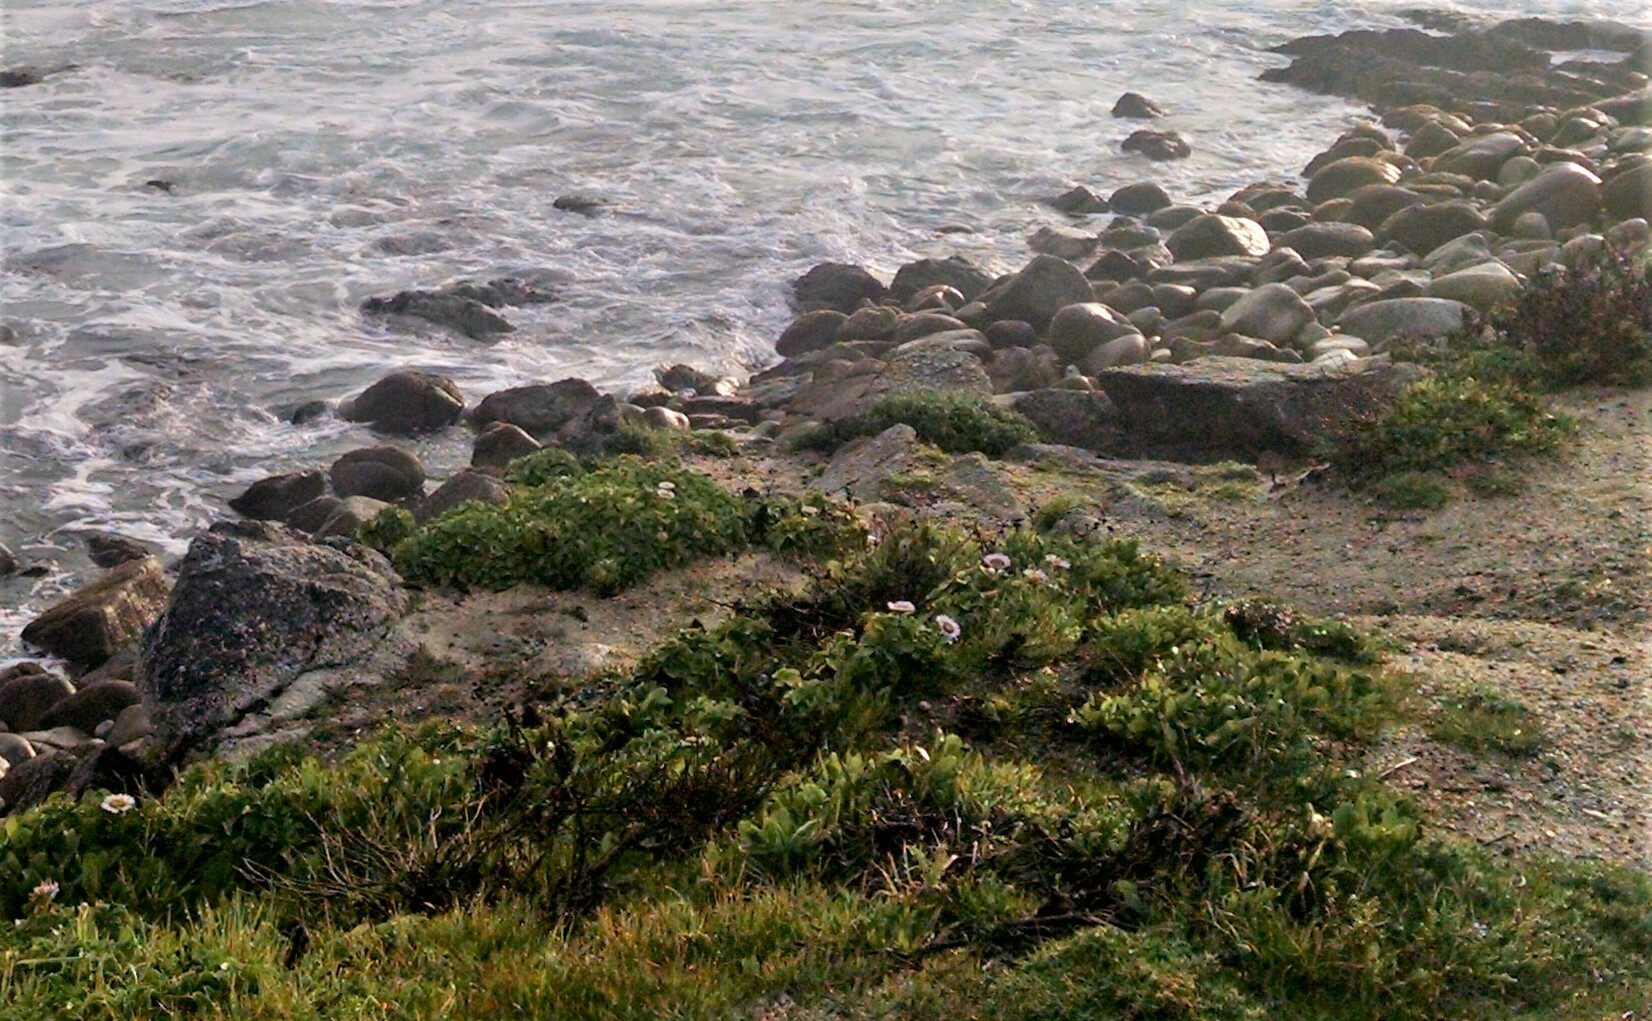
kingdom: Plantae
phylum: Tracheophyta
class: Magnoliopsida
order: Asterales
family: Asteraceae
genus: Erigeron
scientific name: Erigeron glaucus
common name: Seaside daisy
